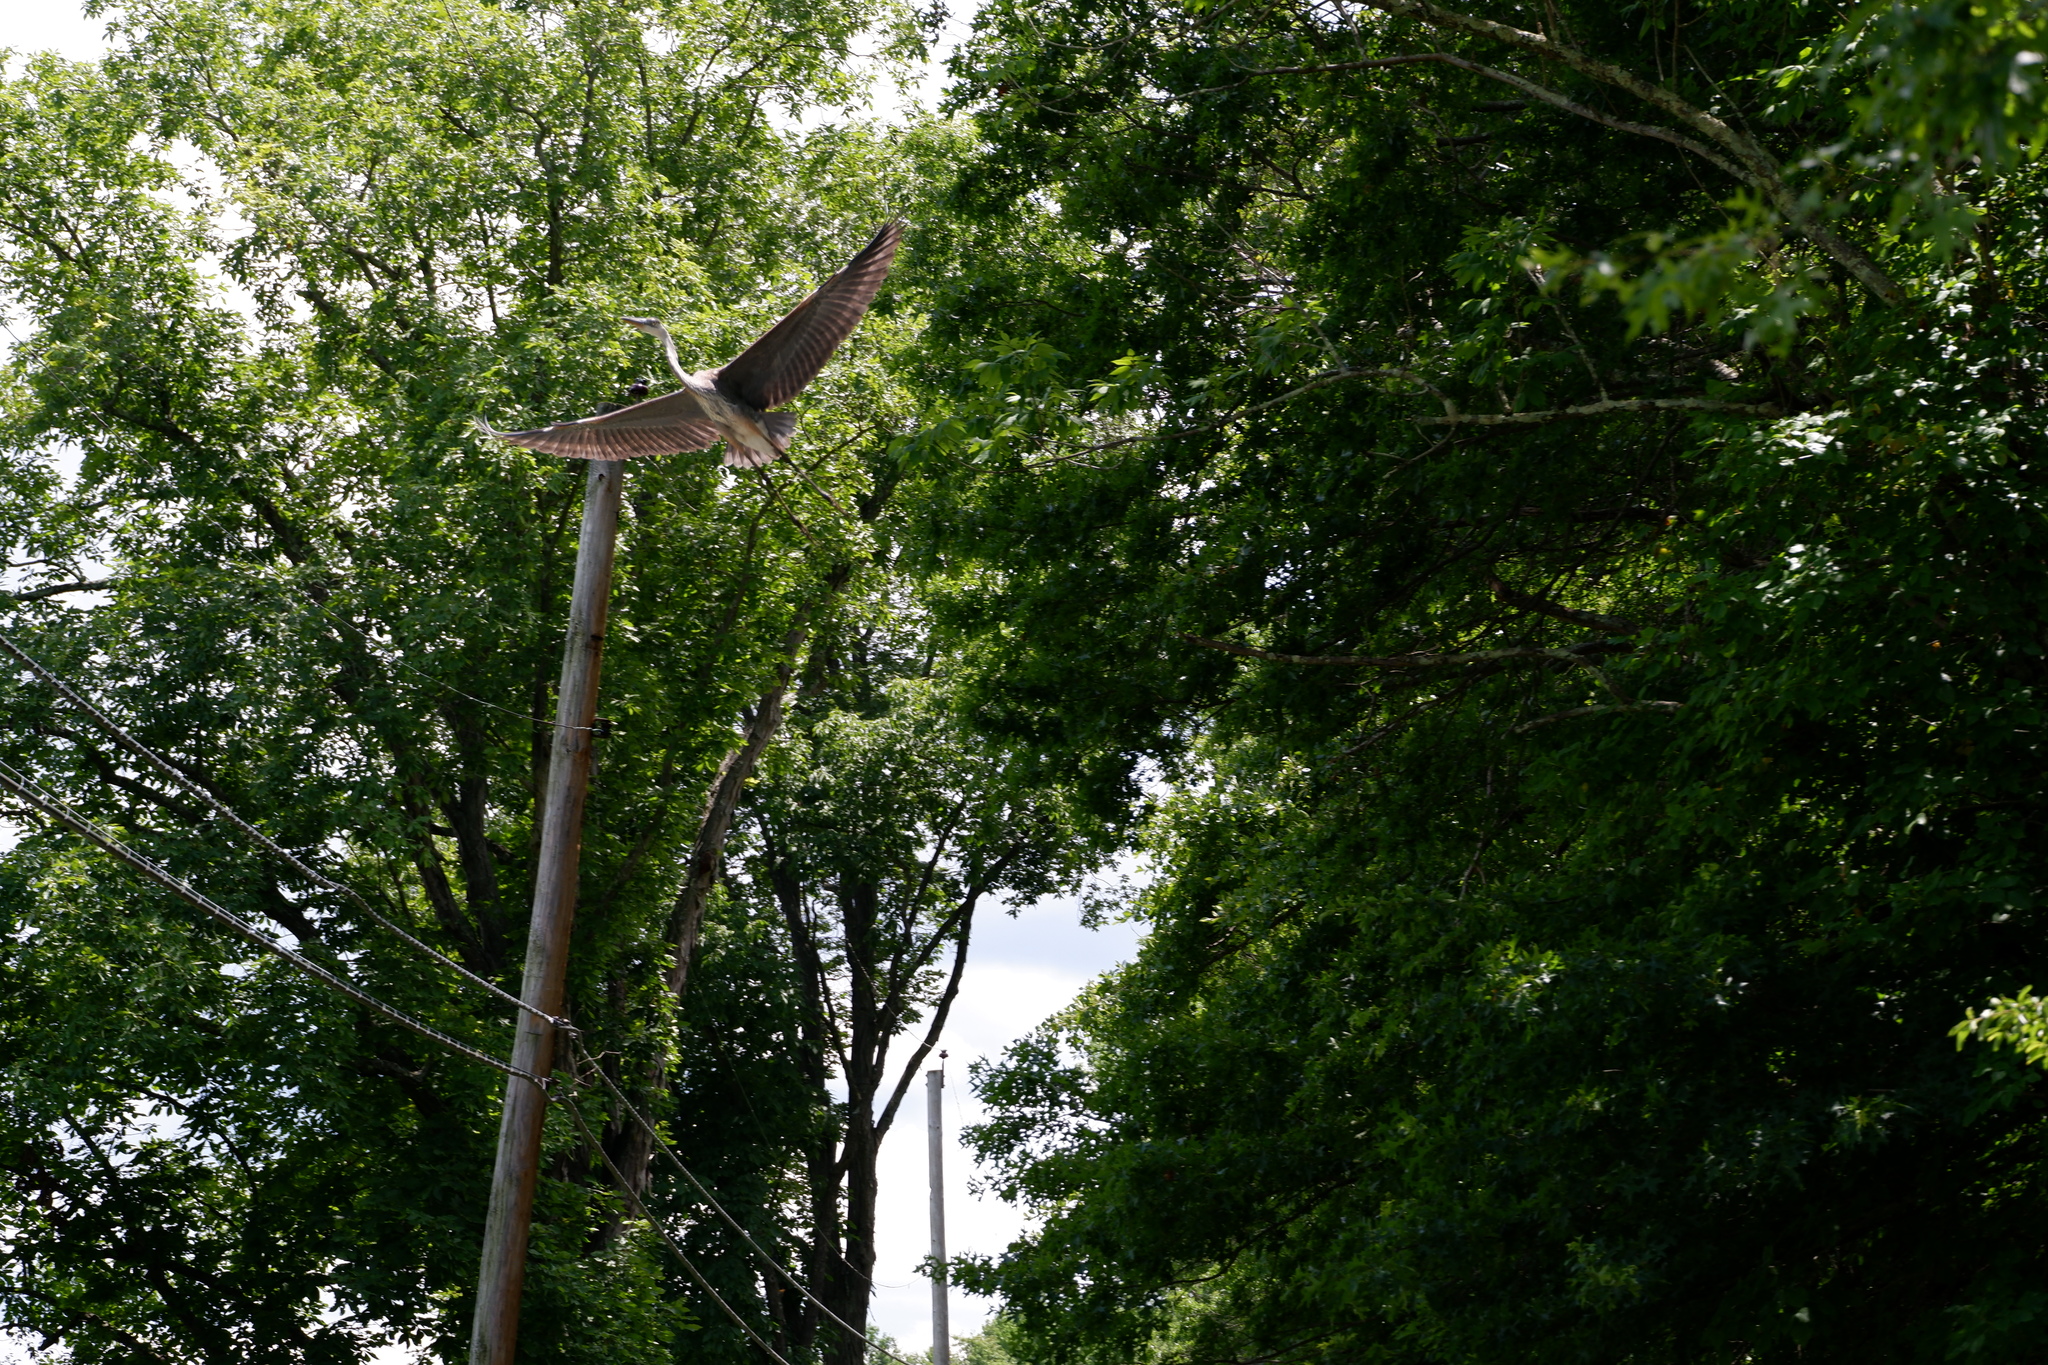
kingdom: Animalia
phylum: Chordata
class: Aves
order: Pelecaniformes
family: Ardeidae
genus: Ardea
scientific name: Ardea herodias
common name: Great blue heron
